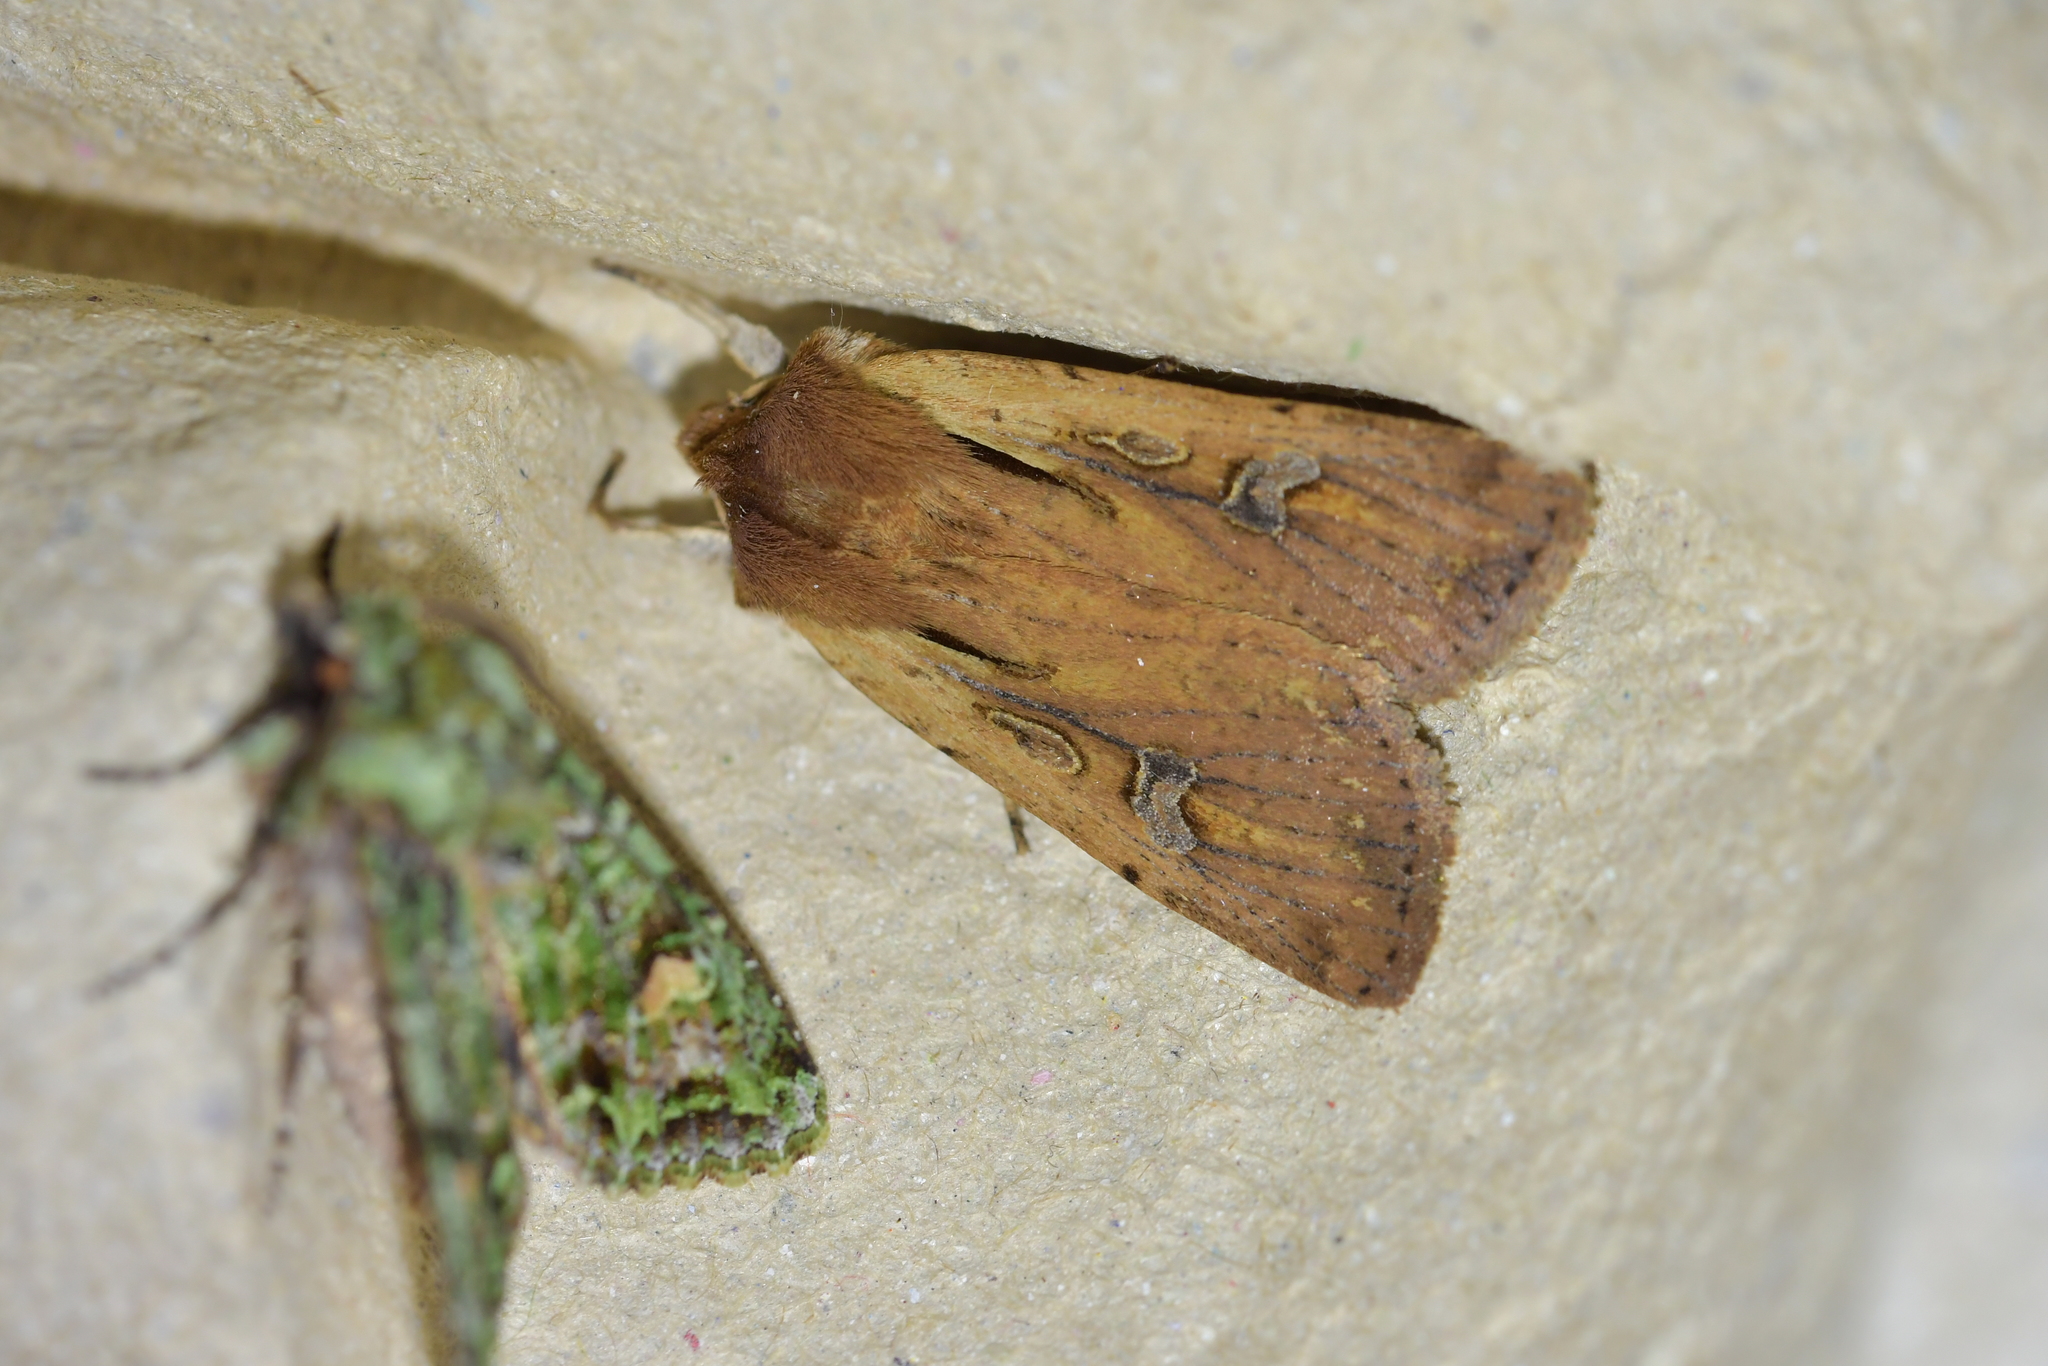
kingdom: Animalia
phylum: Arthropoda
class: Insecta
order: Lepidoptera
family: Noctuidae
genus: Ichneutica
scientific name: Ichneutica atristriga
